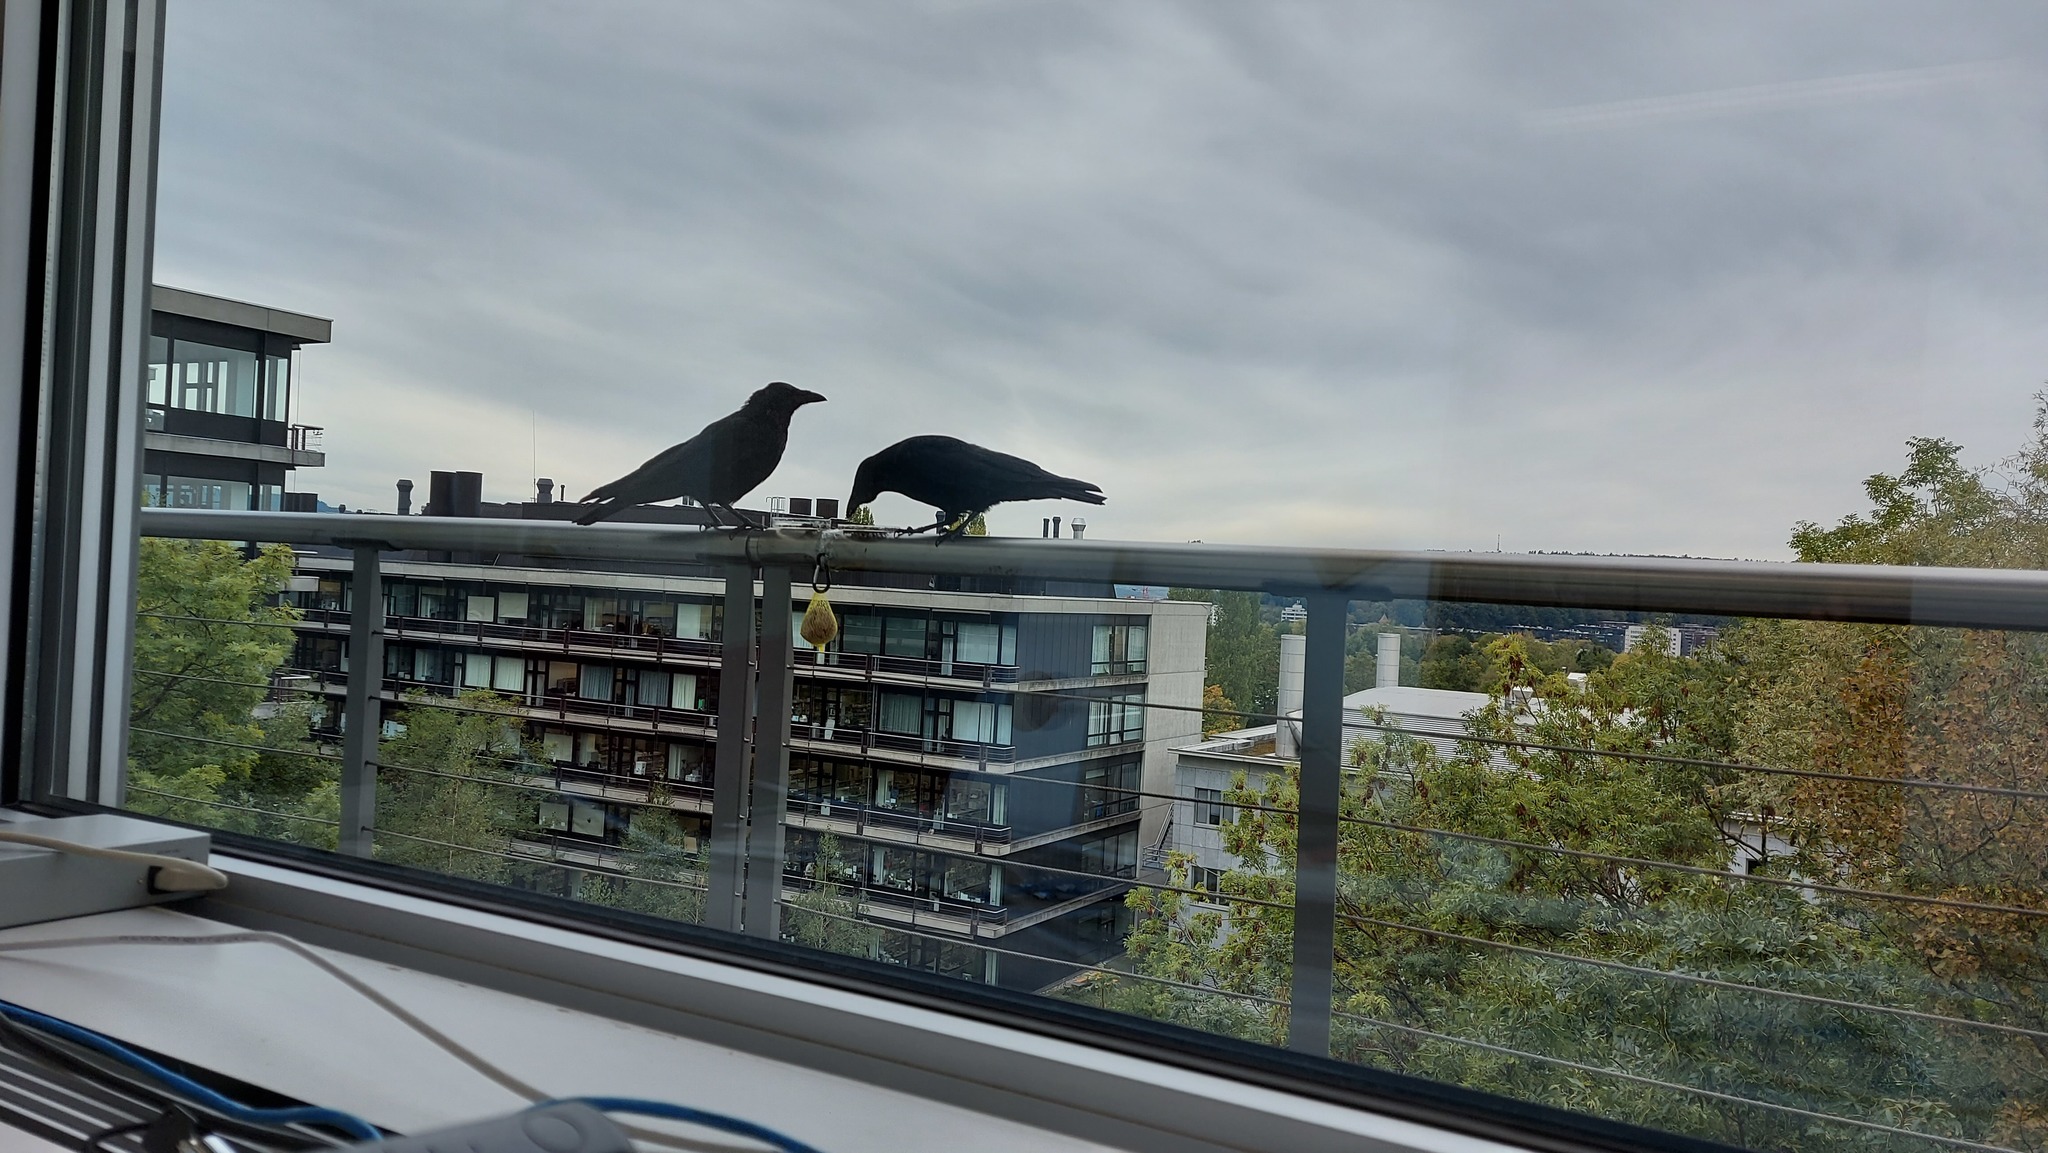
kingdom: Animalia
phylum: Chordata
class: Aves
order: Passeriformes
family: Corvidae
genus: Corvus
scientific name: Corvus corone
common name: Carrion crow
